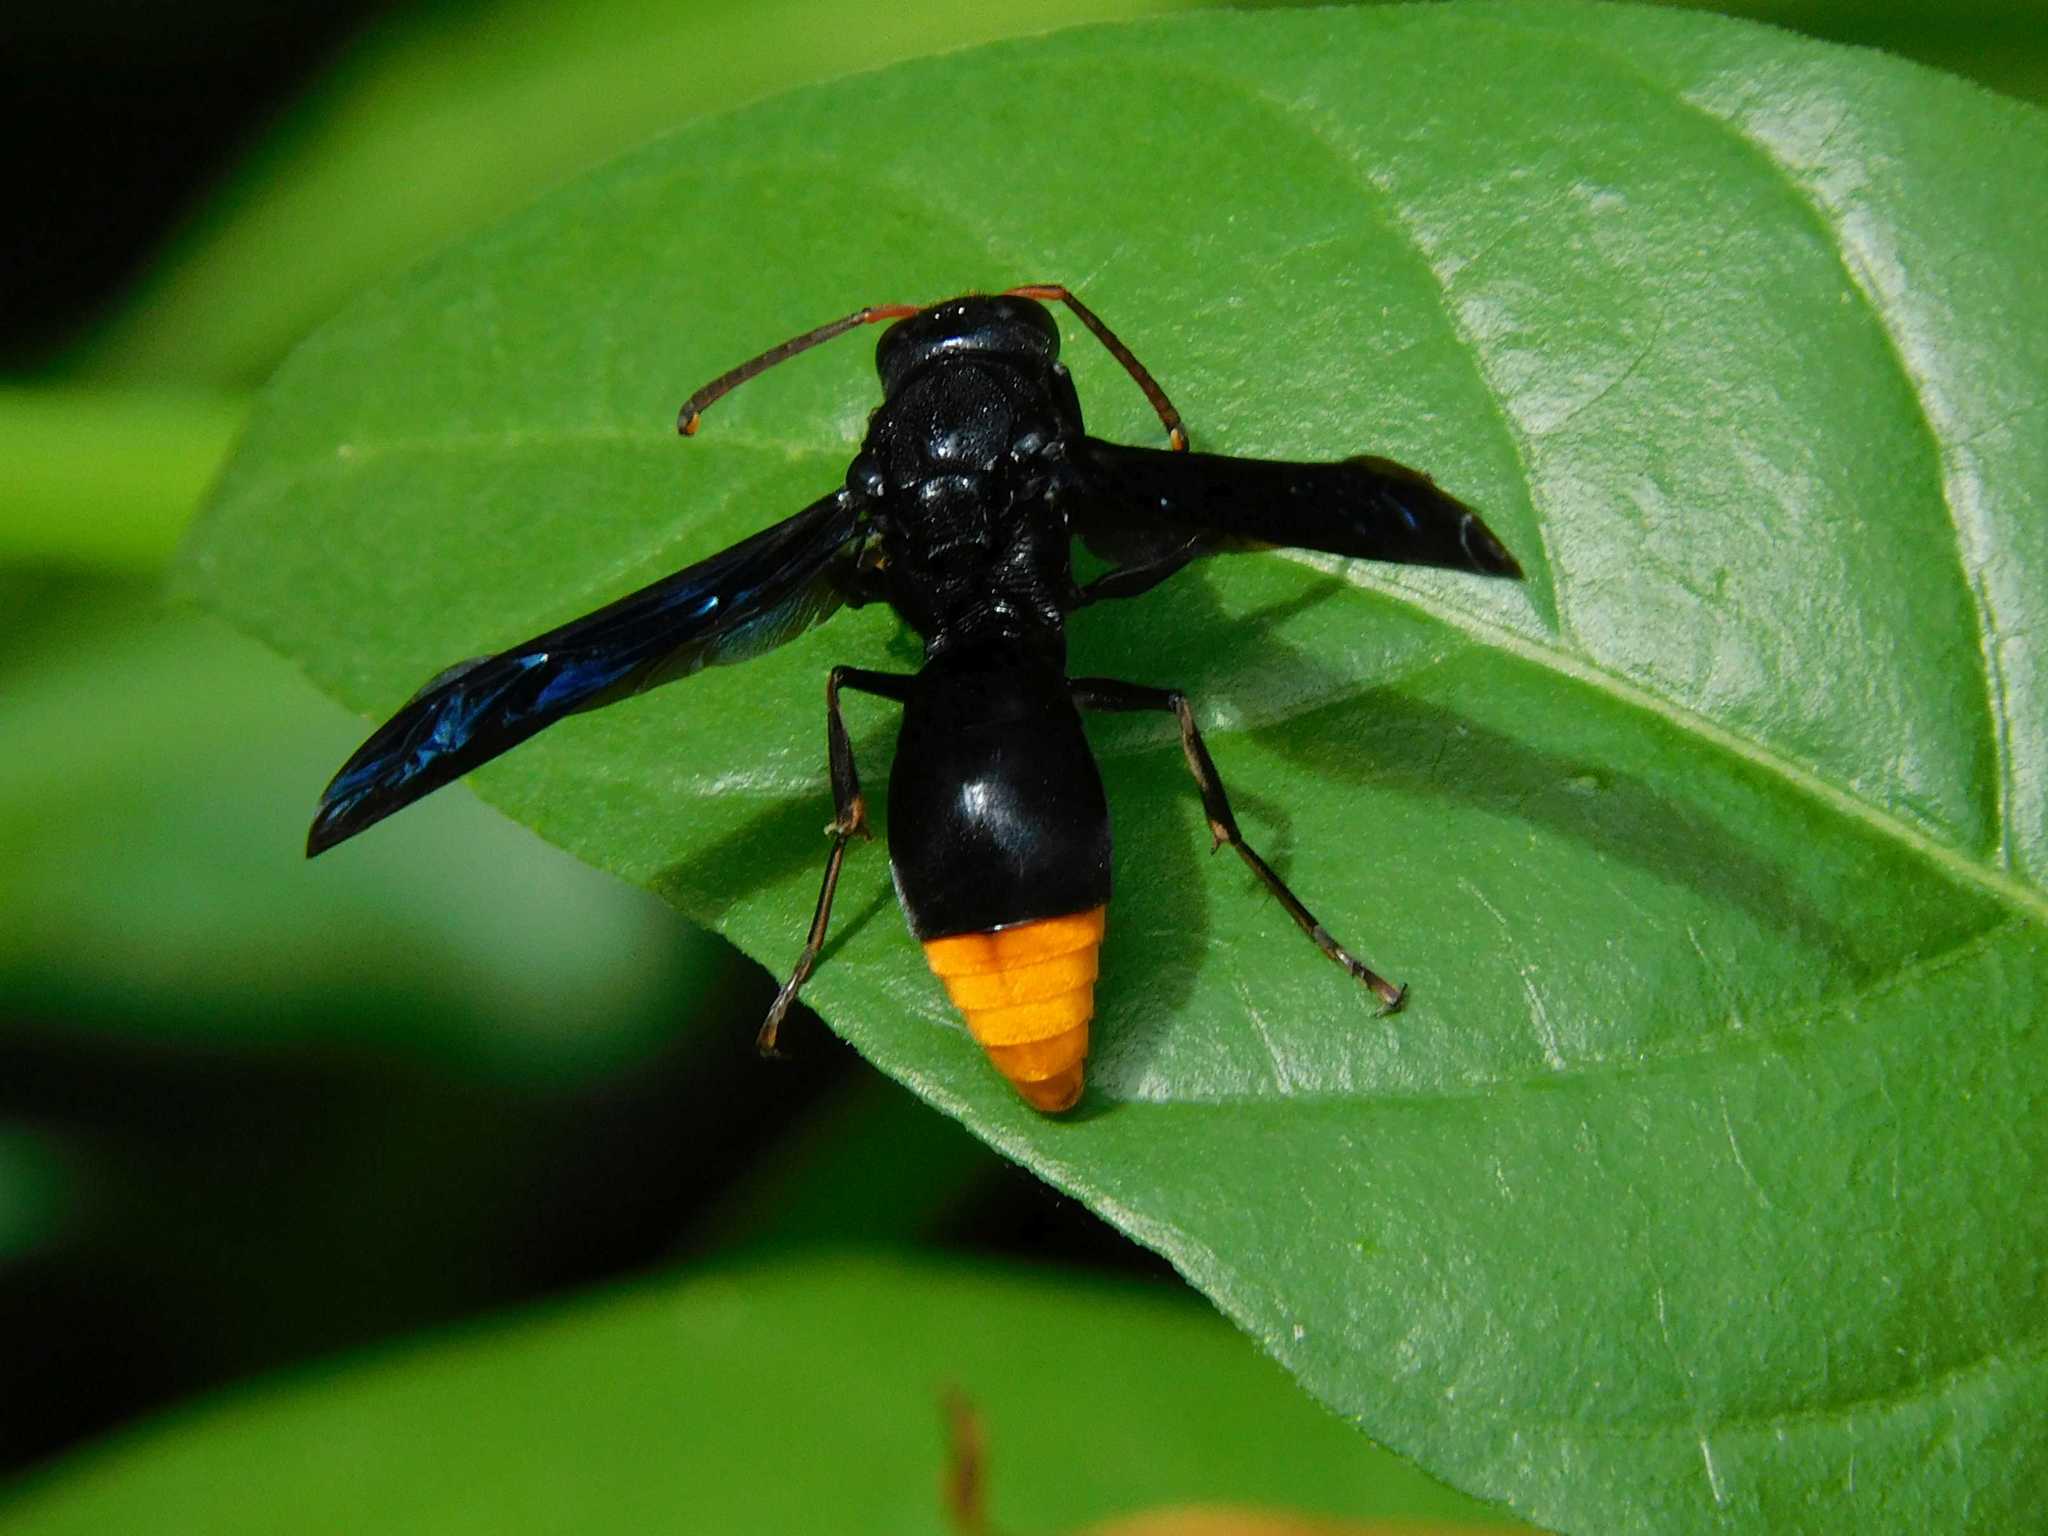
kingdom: Animalia
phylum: Arthropoda
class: Insecta
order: Hymenoptera
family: Vespidae
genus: Synagris
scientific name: Synagris analis
